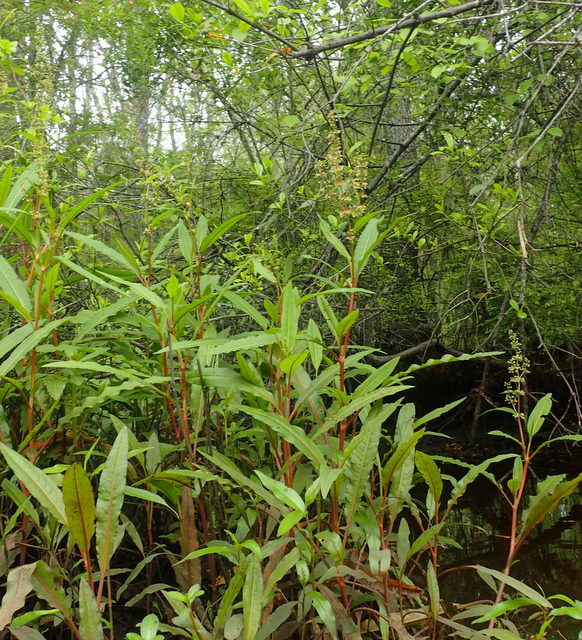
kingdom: Plantae
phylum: Tracheophyta
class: Magnoliopsida
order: Caryophyllales
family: Polygonaceae
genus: Rumex
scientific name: Rumex verticillatus
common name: Swamp dock
